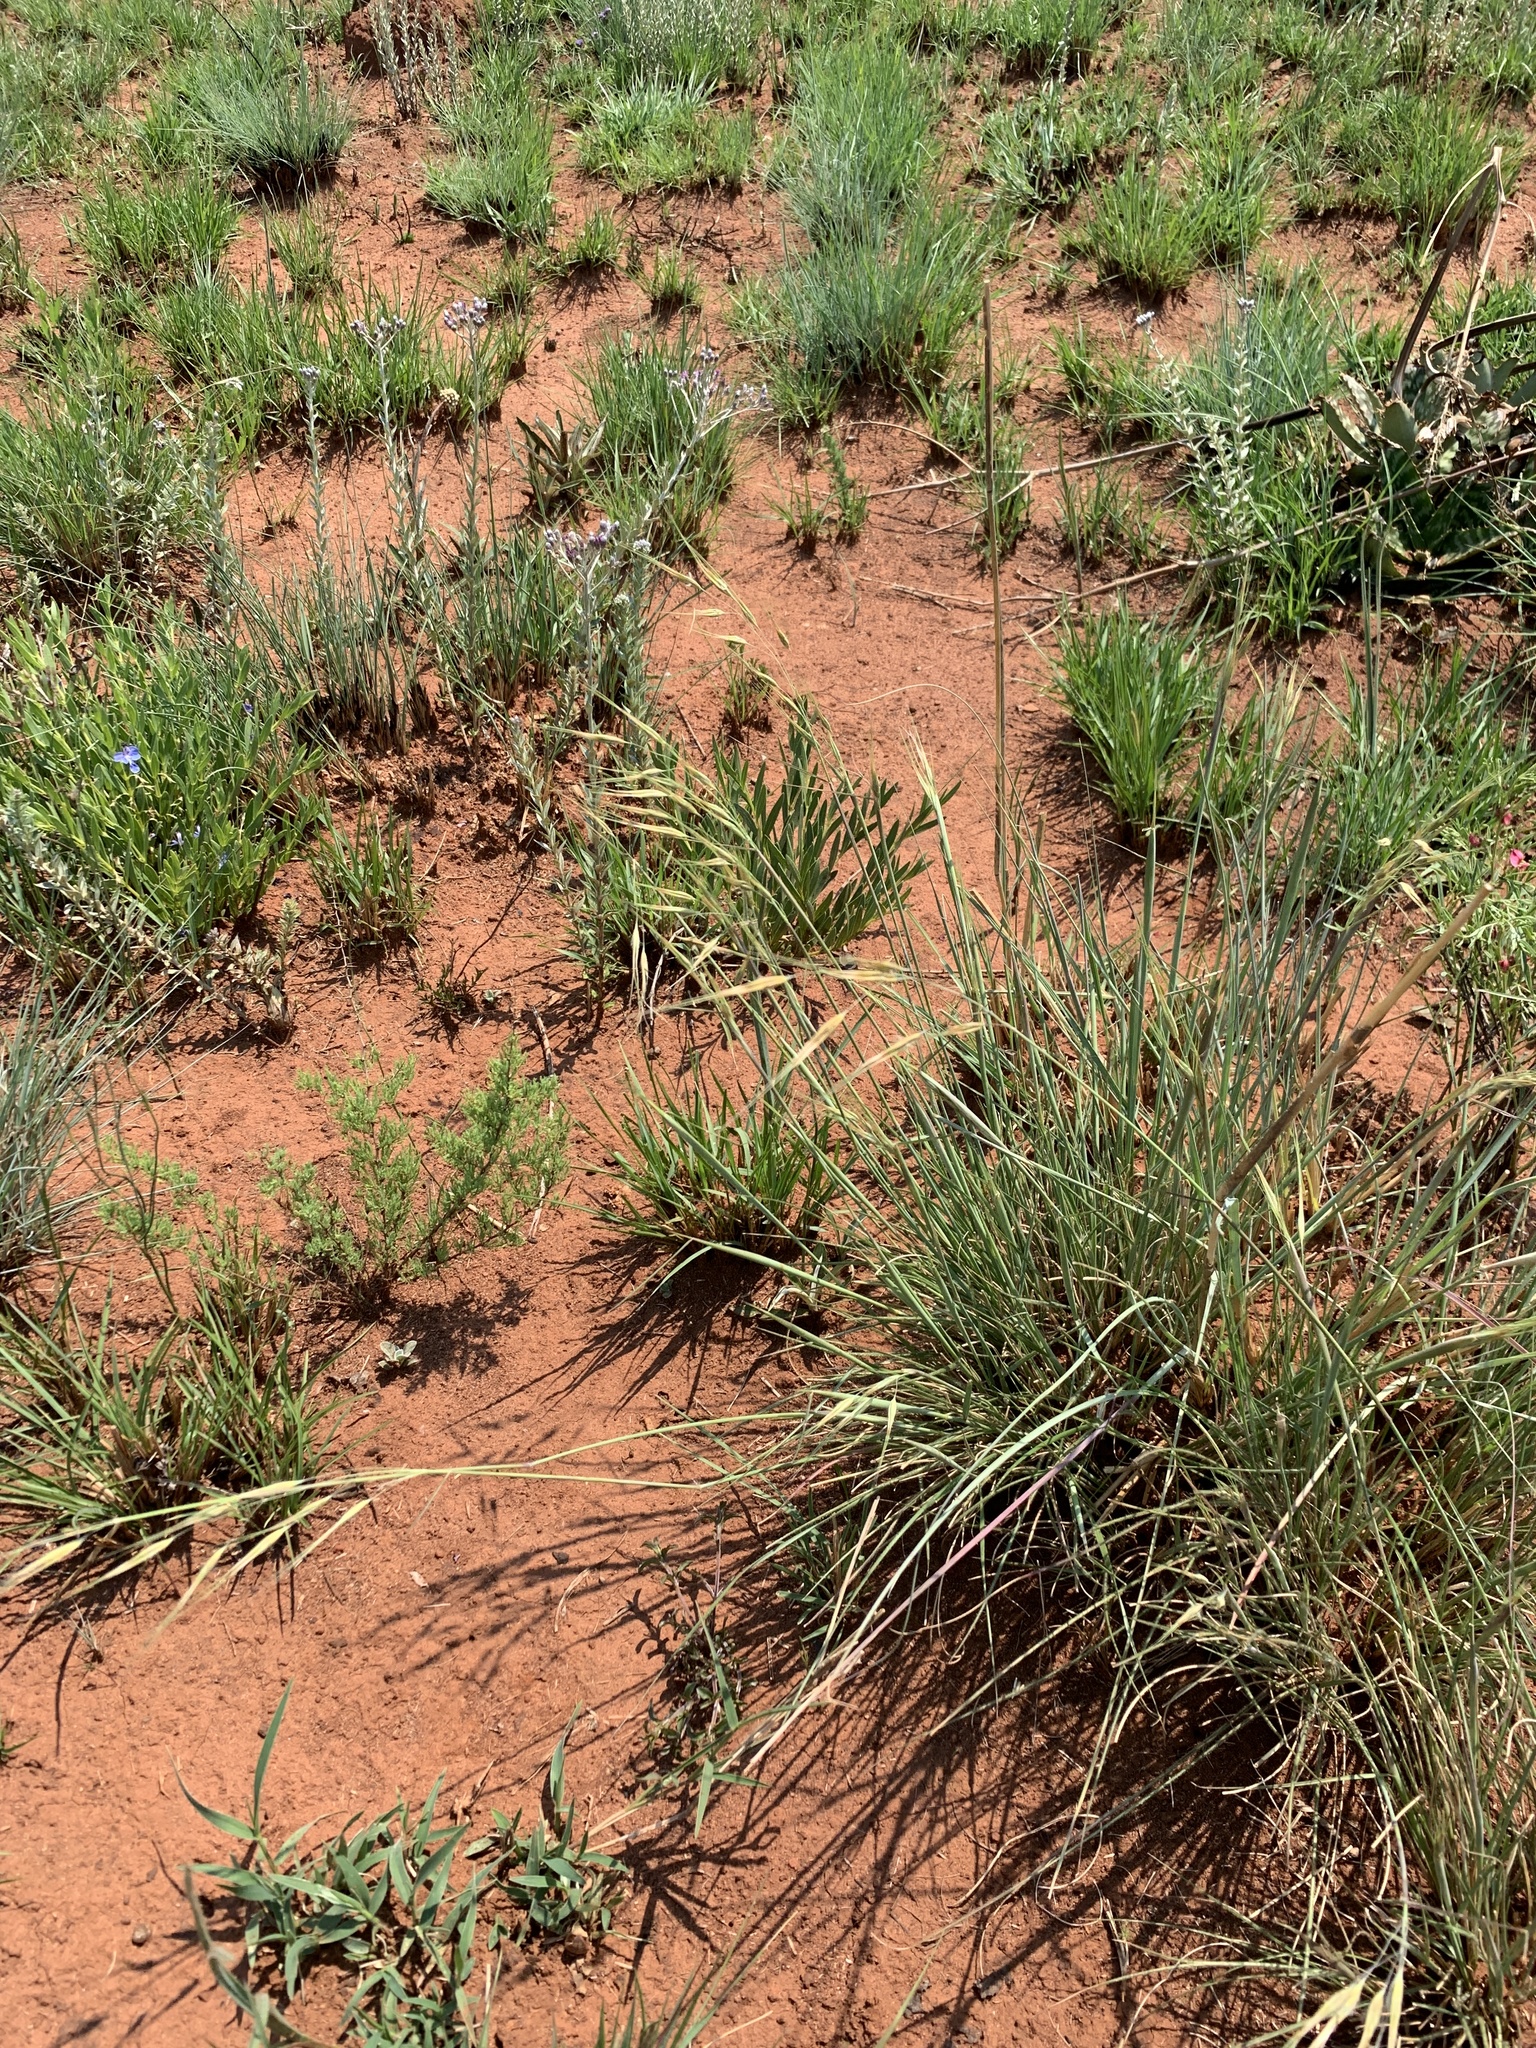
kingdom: Plantae
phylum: Tracheophyta
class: Liliopsida
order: Poales
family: Poaceae
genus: Tristachya
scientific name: Tristachya biseriata
